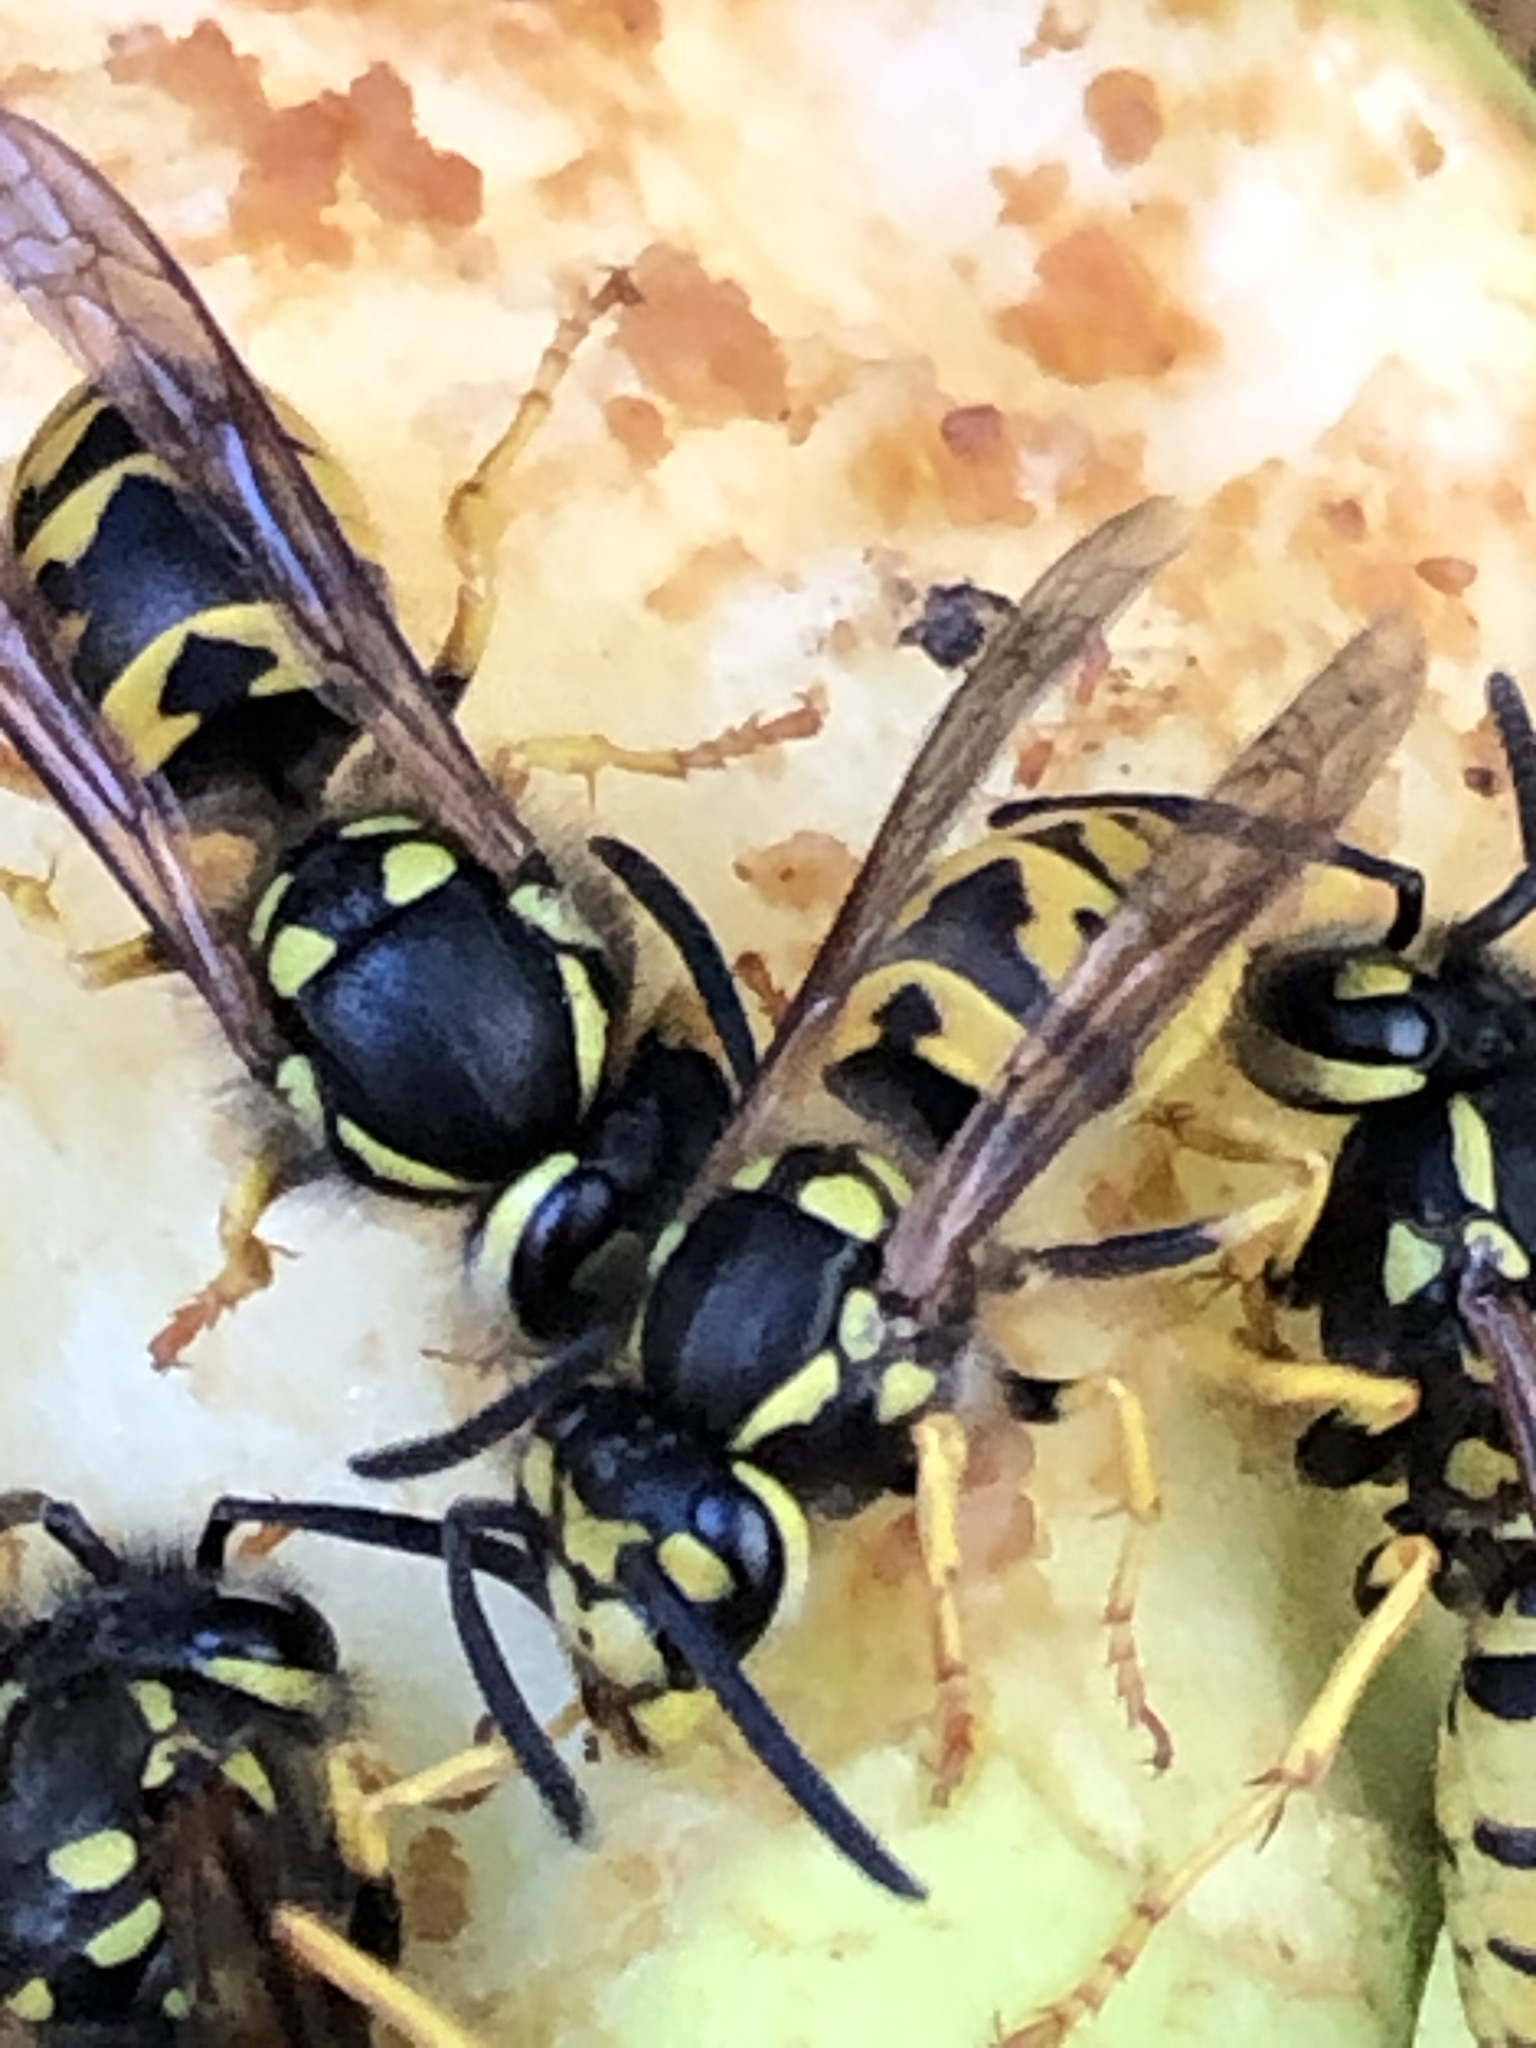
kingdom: Animalia
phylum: Arthropoda
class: Insecta
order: Hymenoptera
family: Vespidae
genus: Vespula
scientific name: Vespula germanica
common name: German wasp
